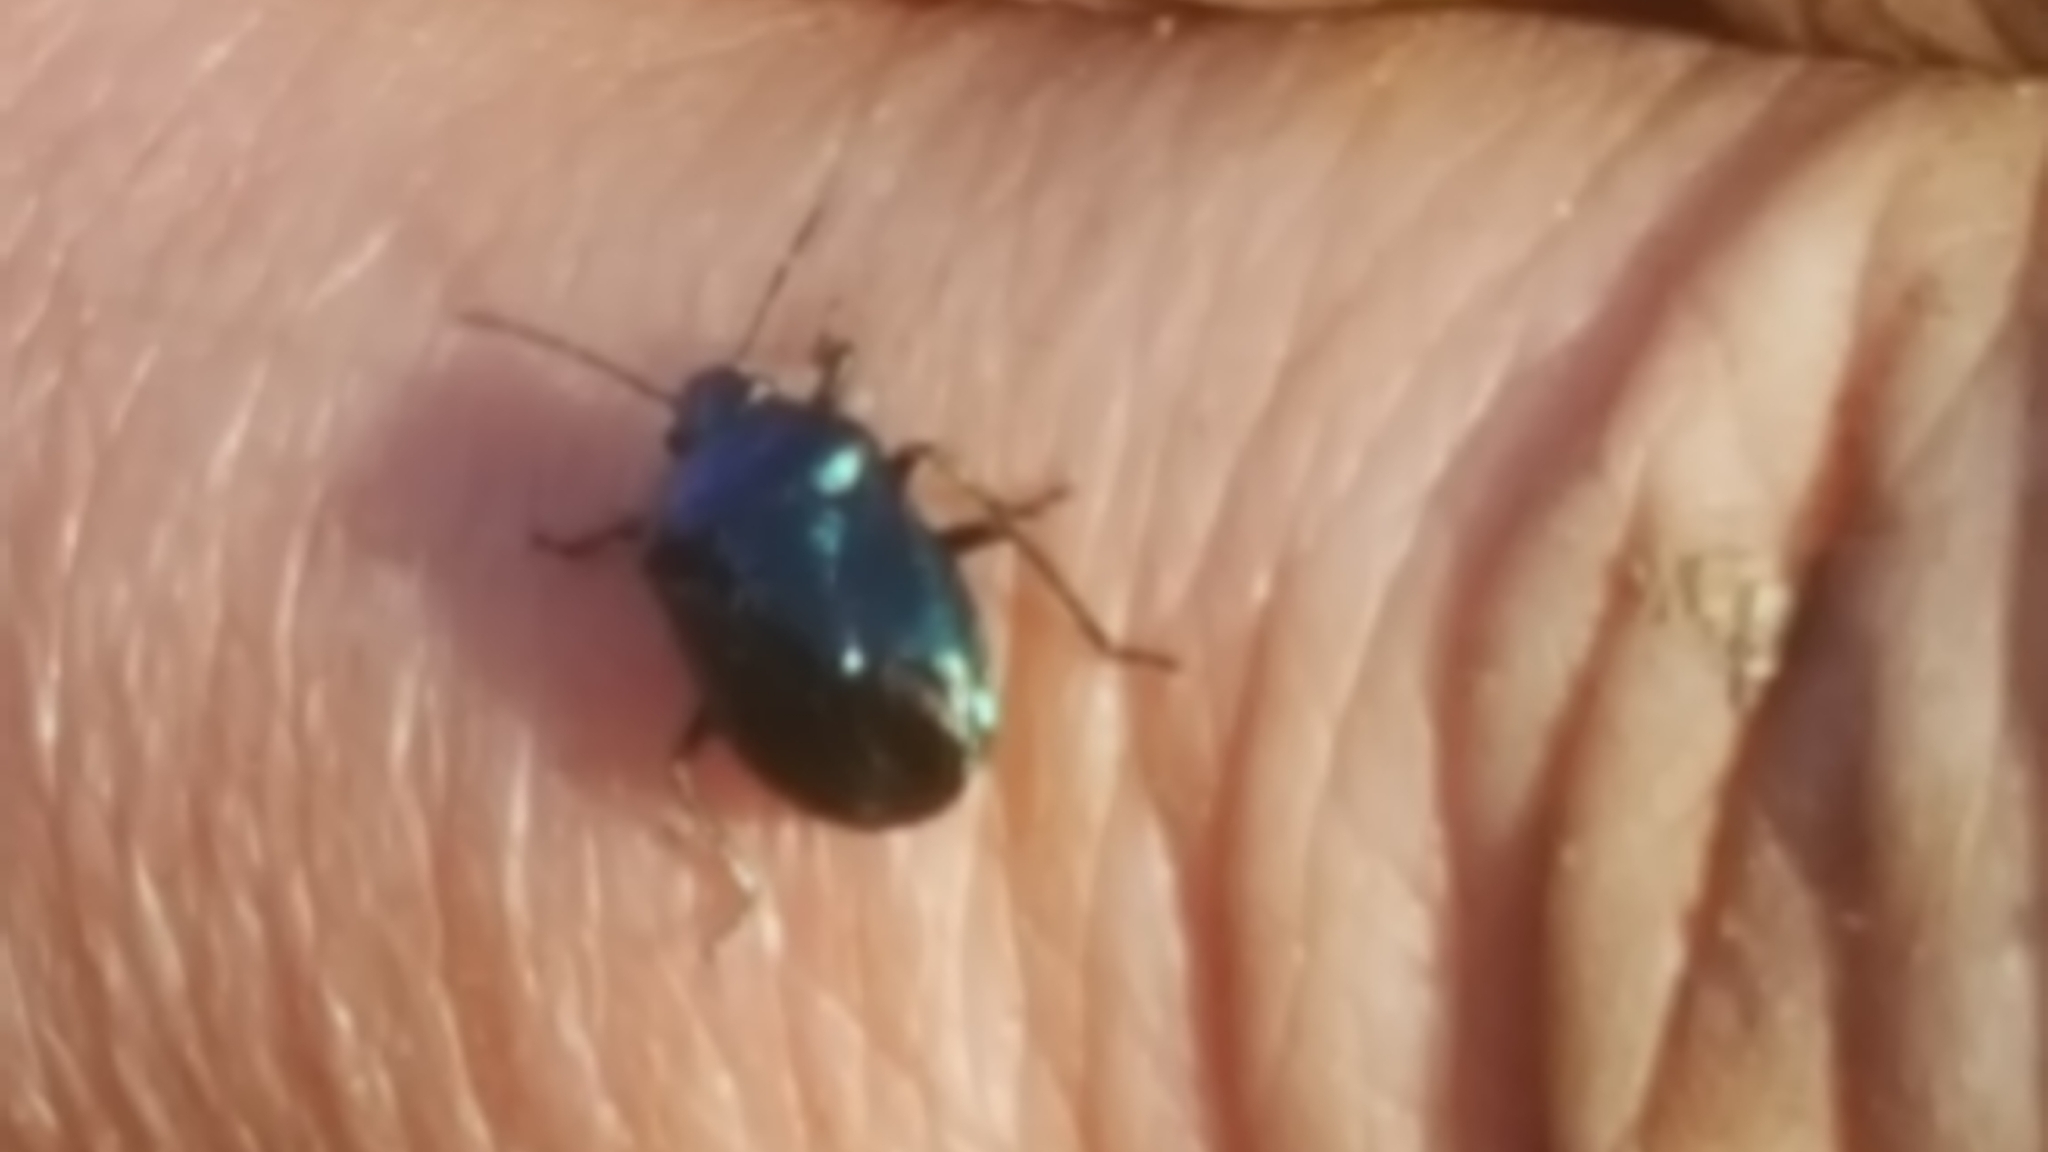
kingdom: Animalia
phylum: Arthropoda
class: Insecta
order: Hemiptera
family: Pentatomidae
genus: Zicrona
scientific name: Zicrona caerulea
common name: Blue shieldbug
